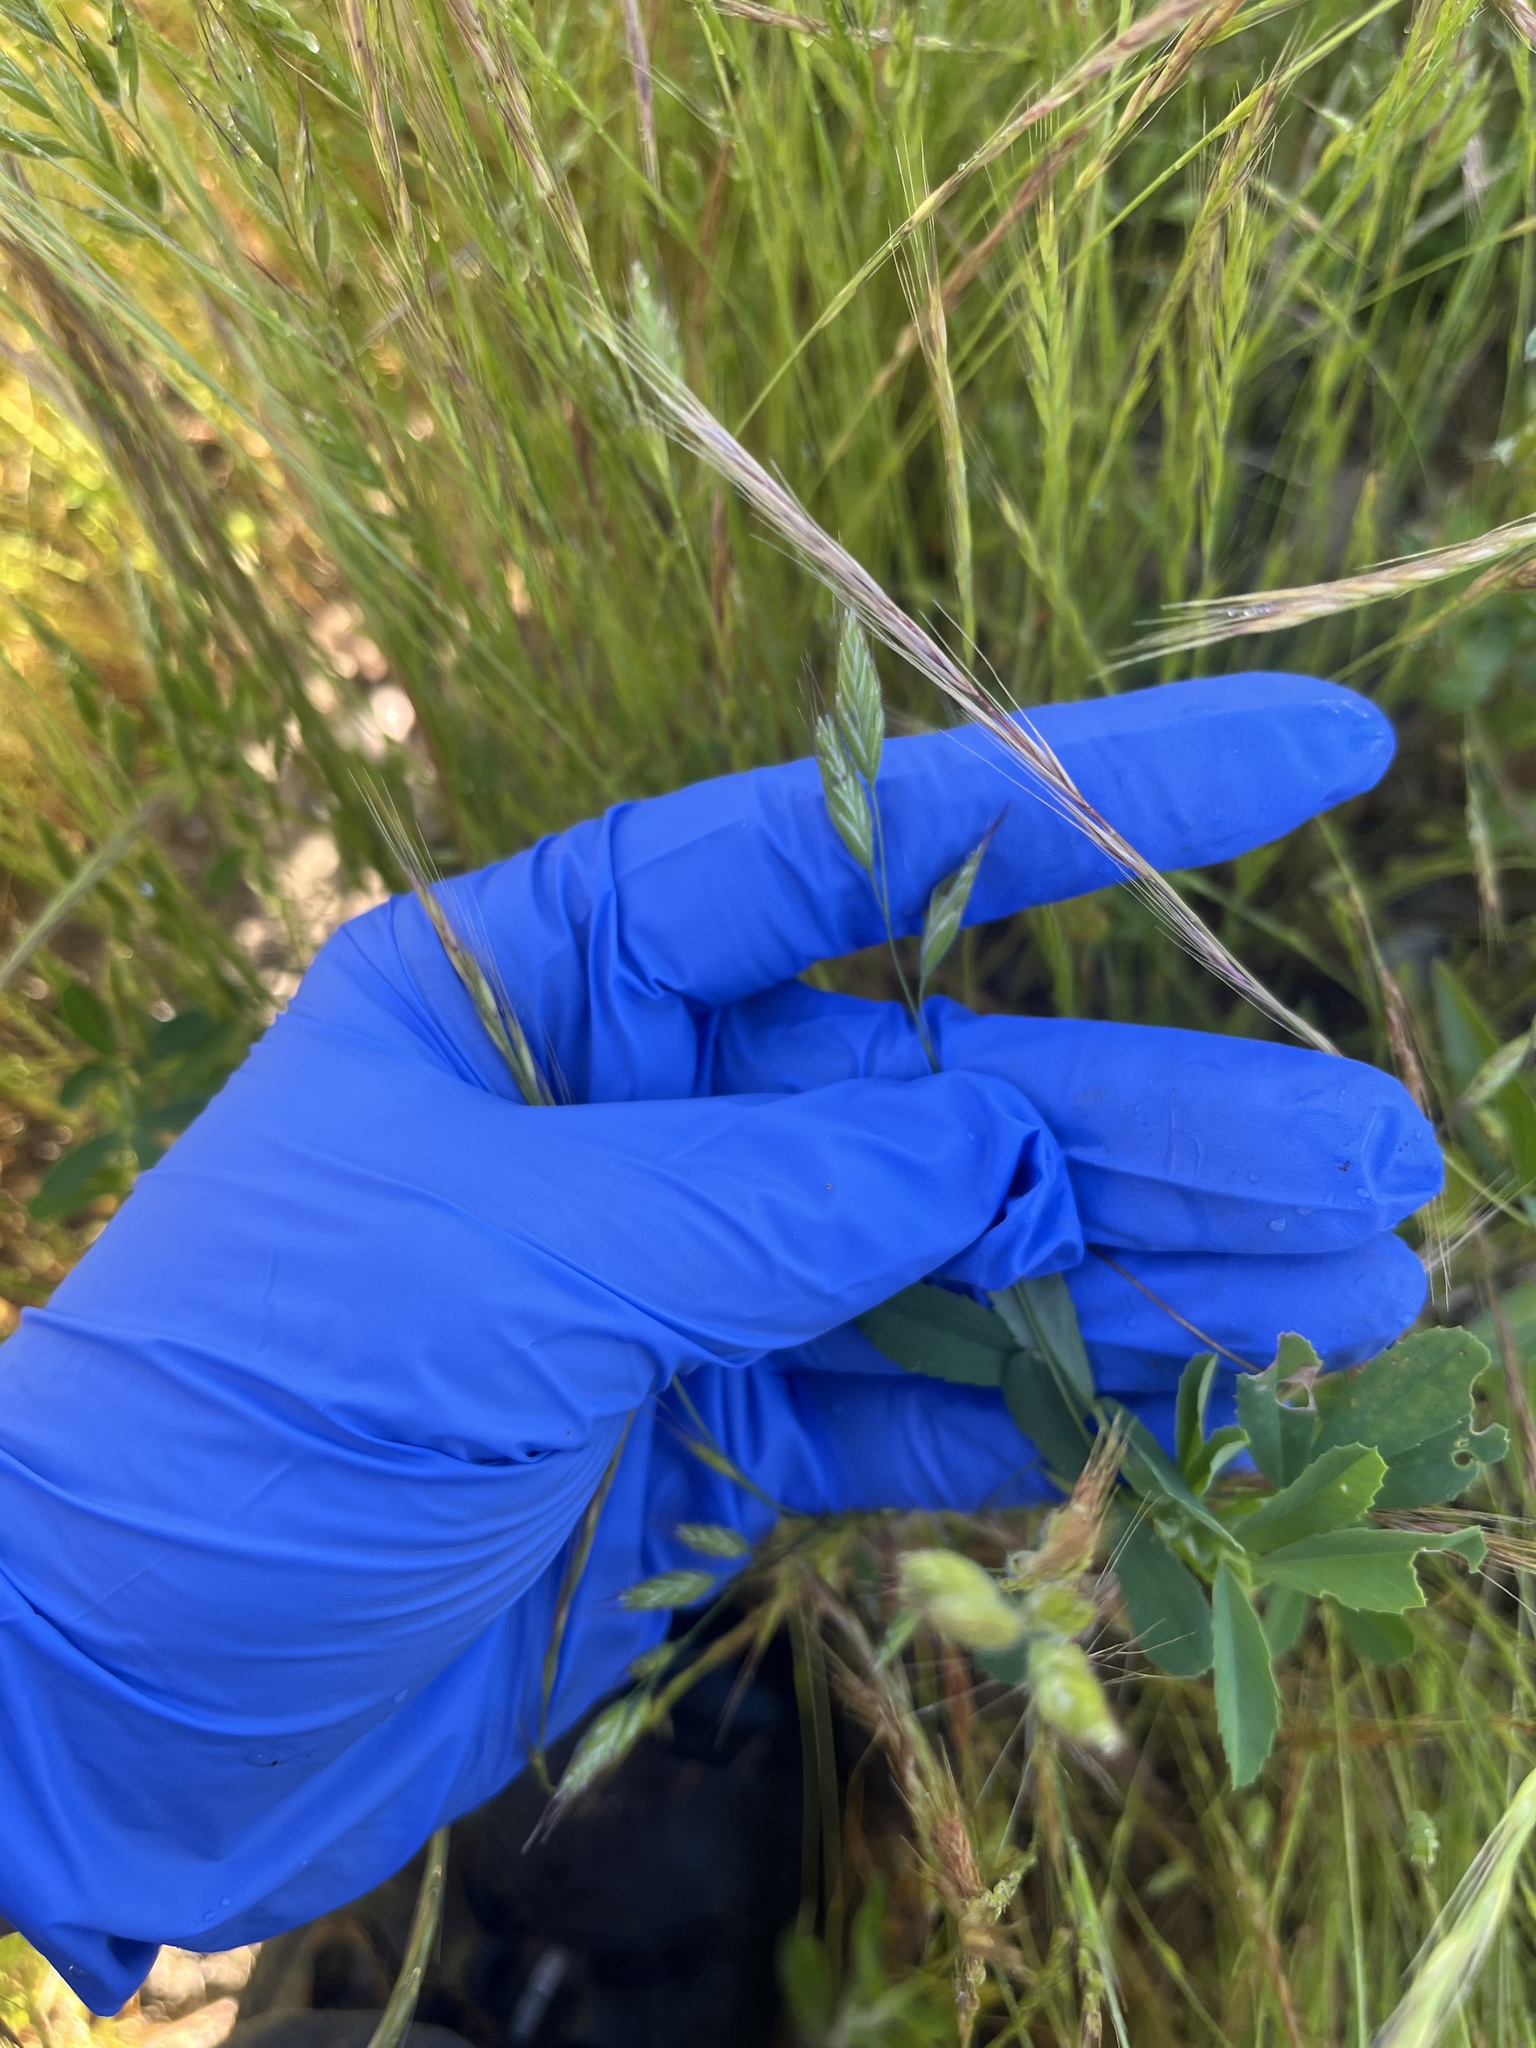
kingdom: Plantae
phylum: Tracheophyta
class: Liliopsida
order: Poales
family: Poaceae
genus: Bromus
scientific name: Bromus hordeaceus
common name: Soft brome
